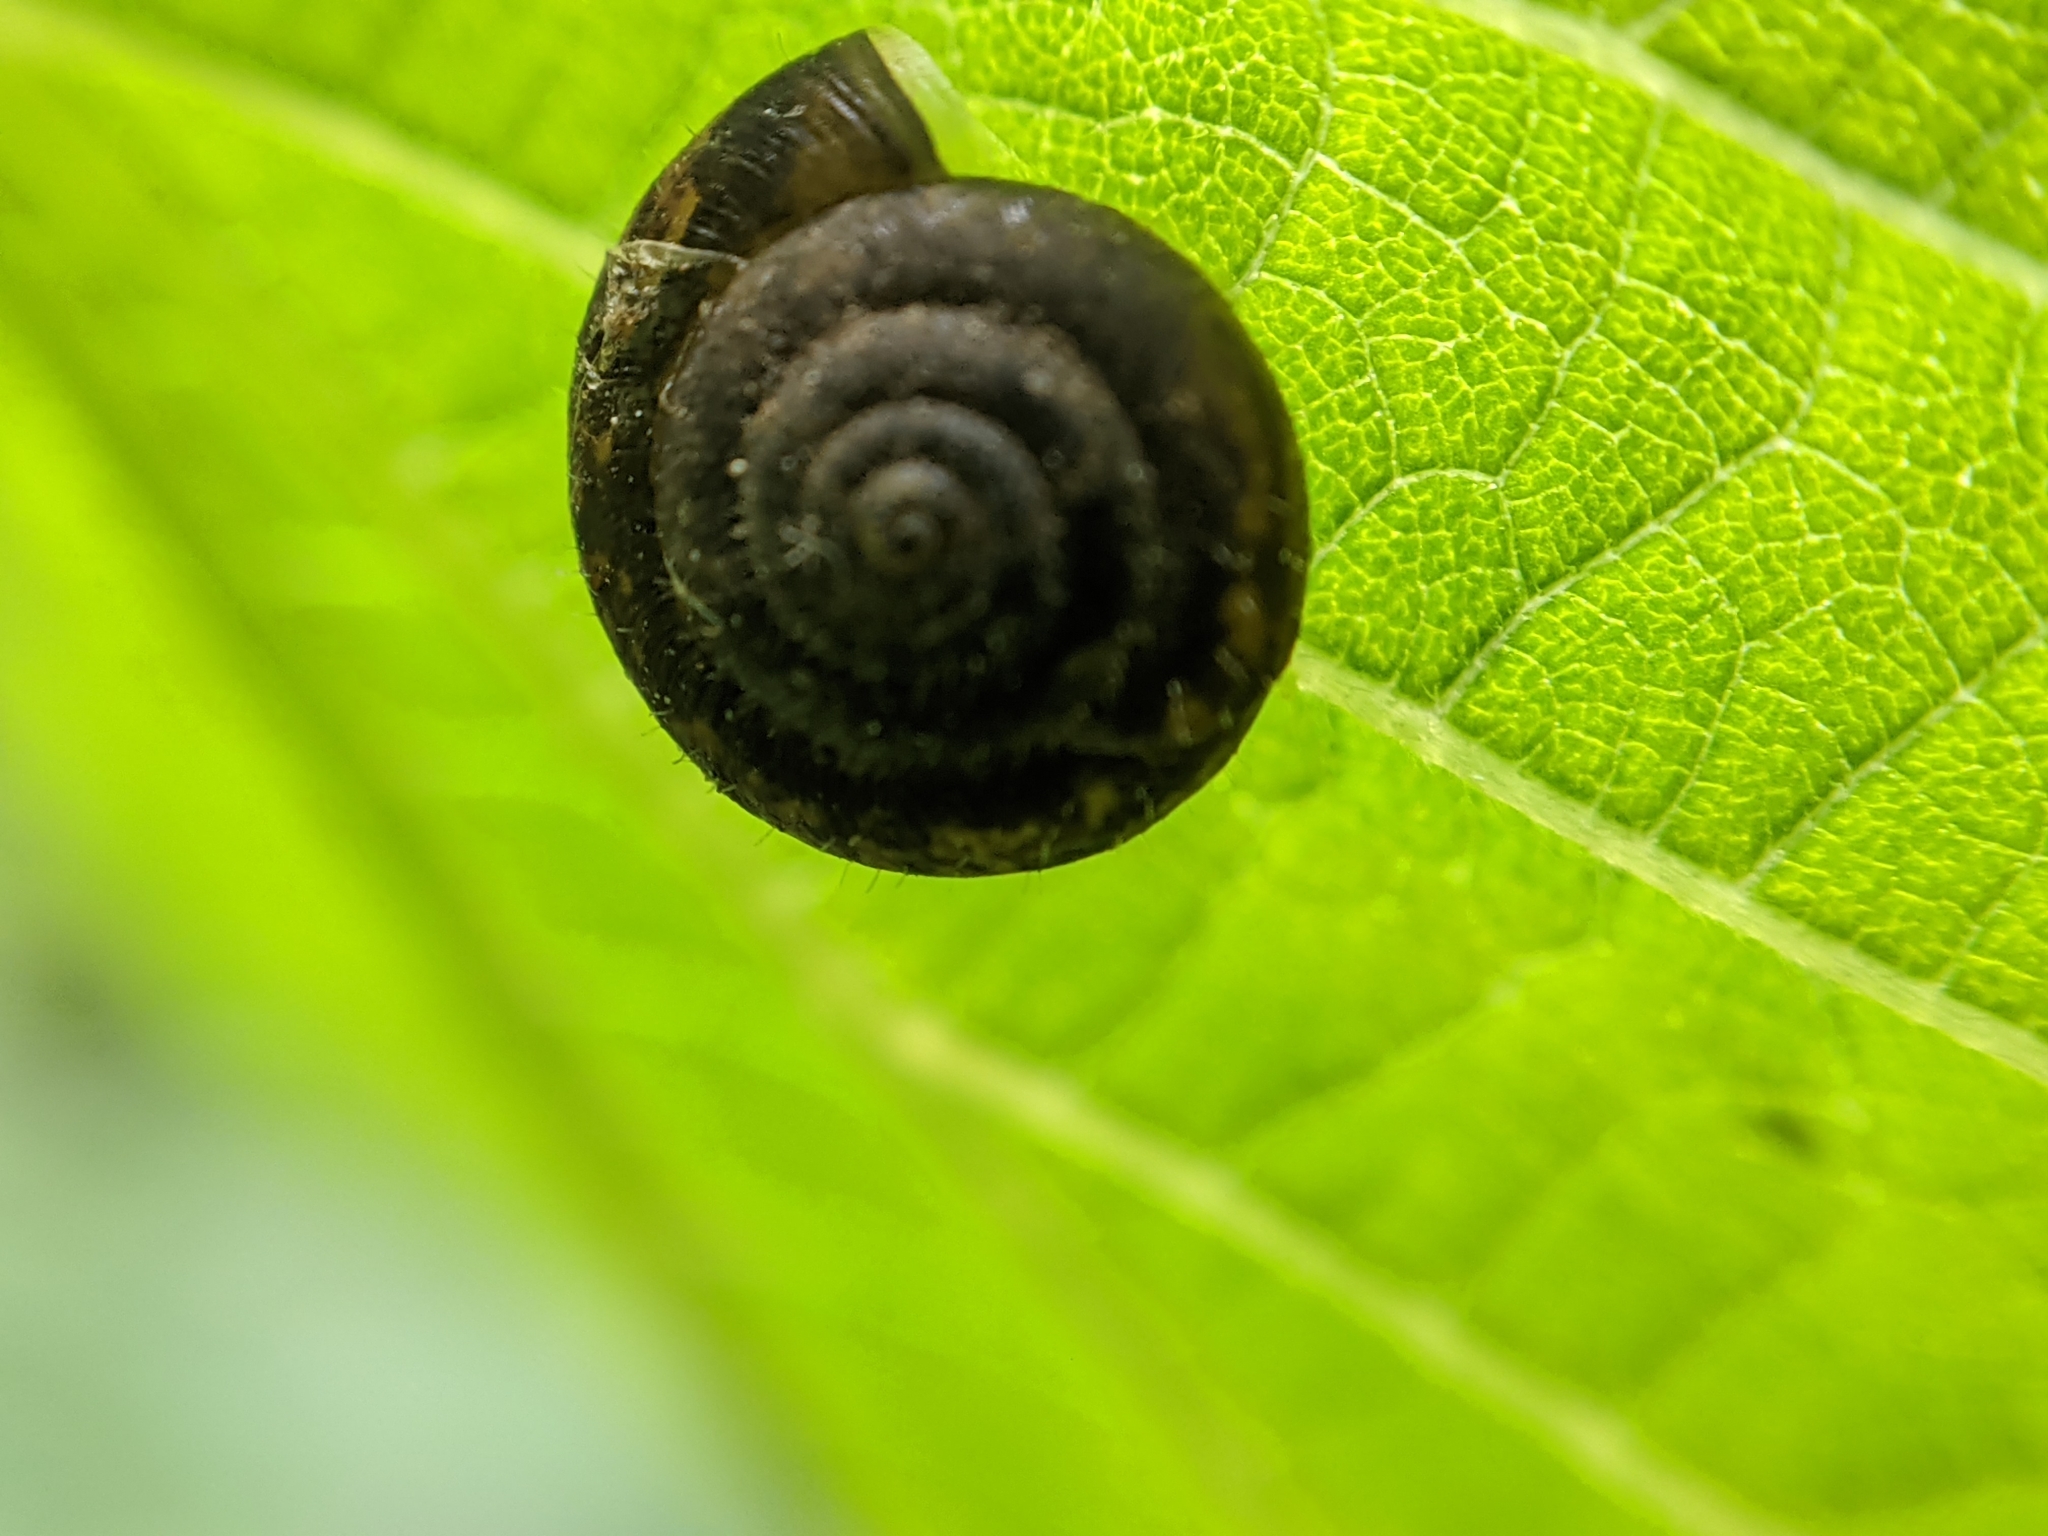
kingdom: Animalia
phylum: Mollusca
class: Gastropoda
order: Stylommatophora
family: Hygromiidae
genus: Trochulus
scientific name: Trochulus hispidus
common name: Hairy snail
